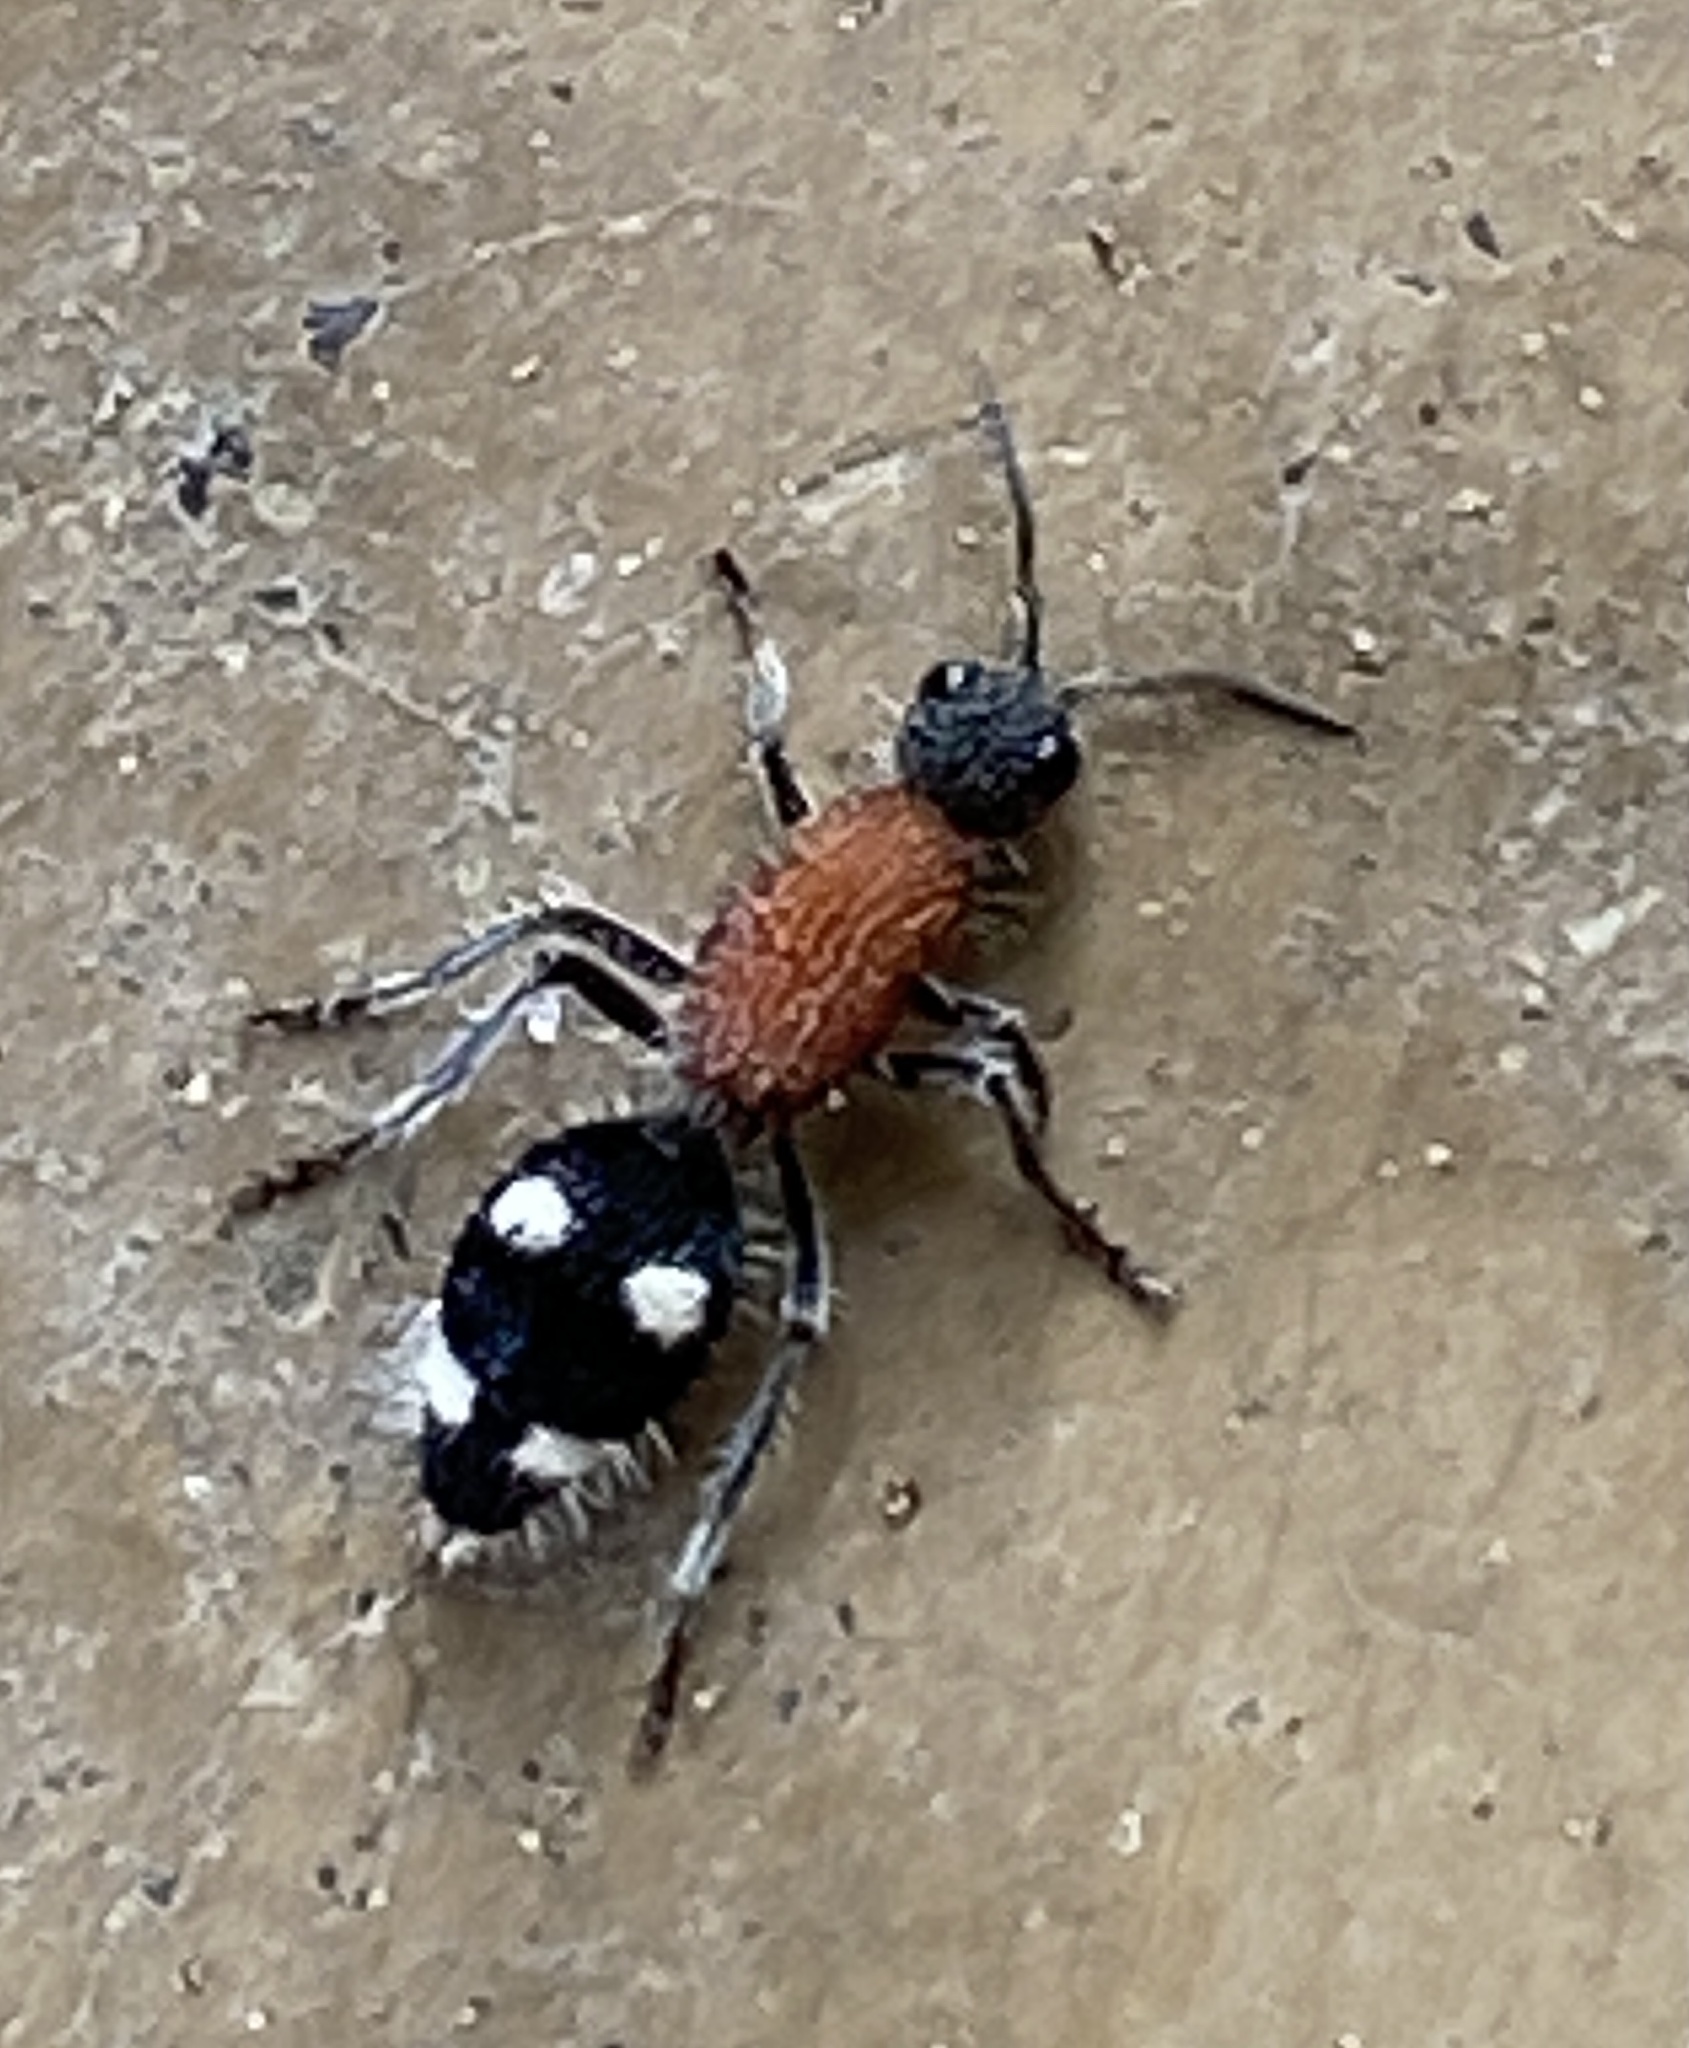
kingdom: Animalia
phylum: Arthropoda
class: Insecta
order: Hymenoptera
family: Mutillidae
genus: Dolichomutilla
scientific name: Dolichomutilla
